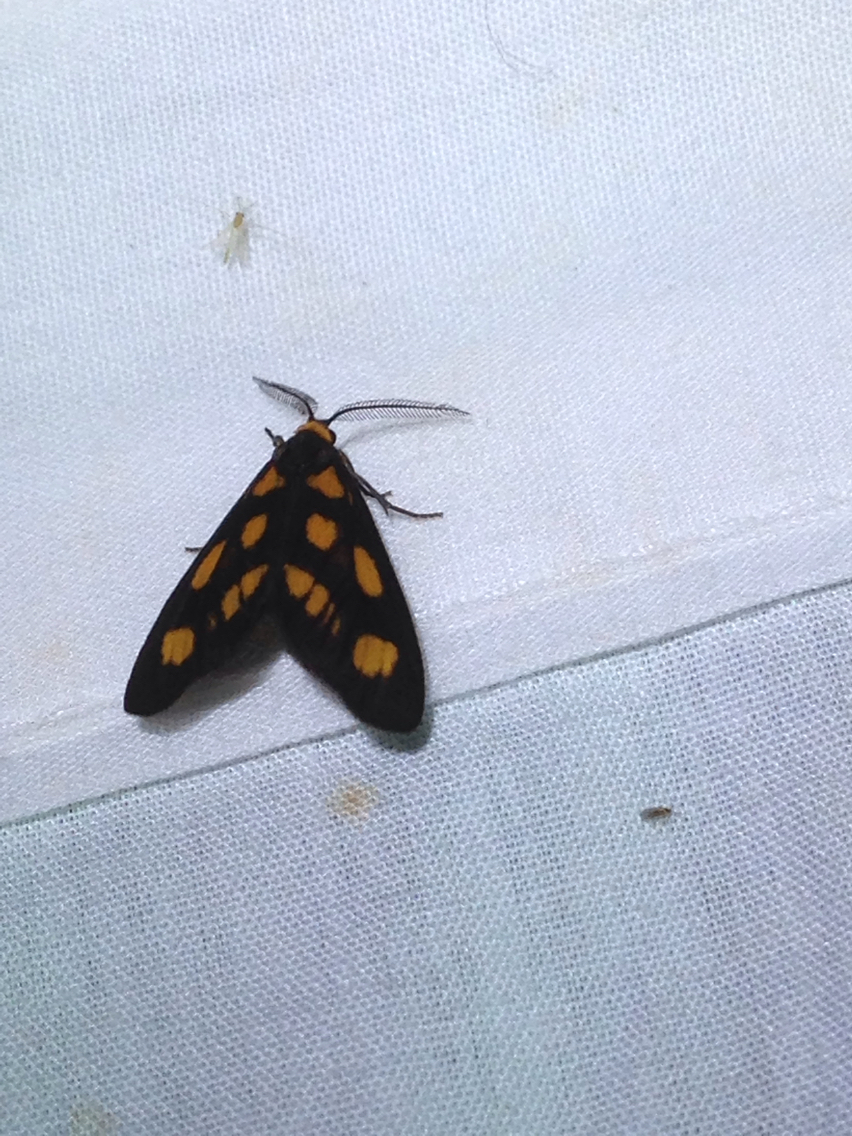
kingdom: Animalia
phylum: Arthropoda
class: Insecta
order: Lepidoptera
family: Erebidae
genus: Asura
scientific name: Asura cervicalis
